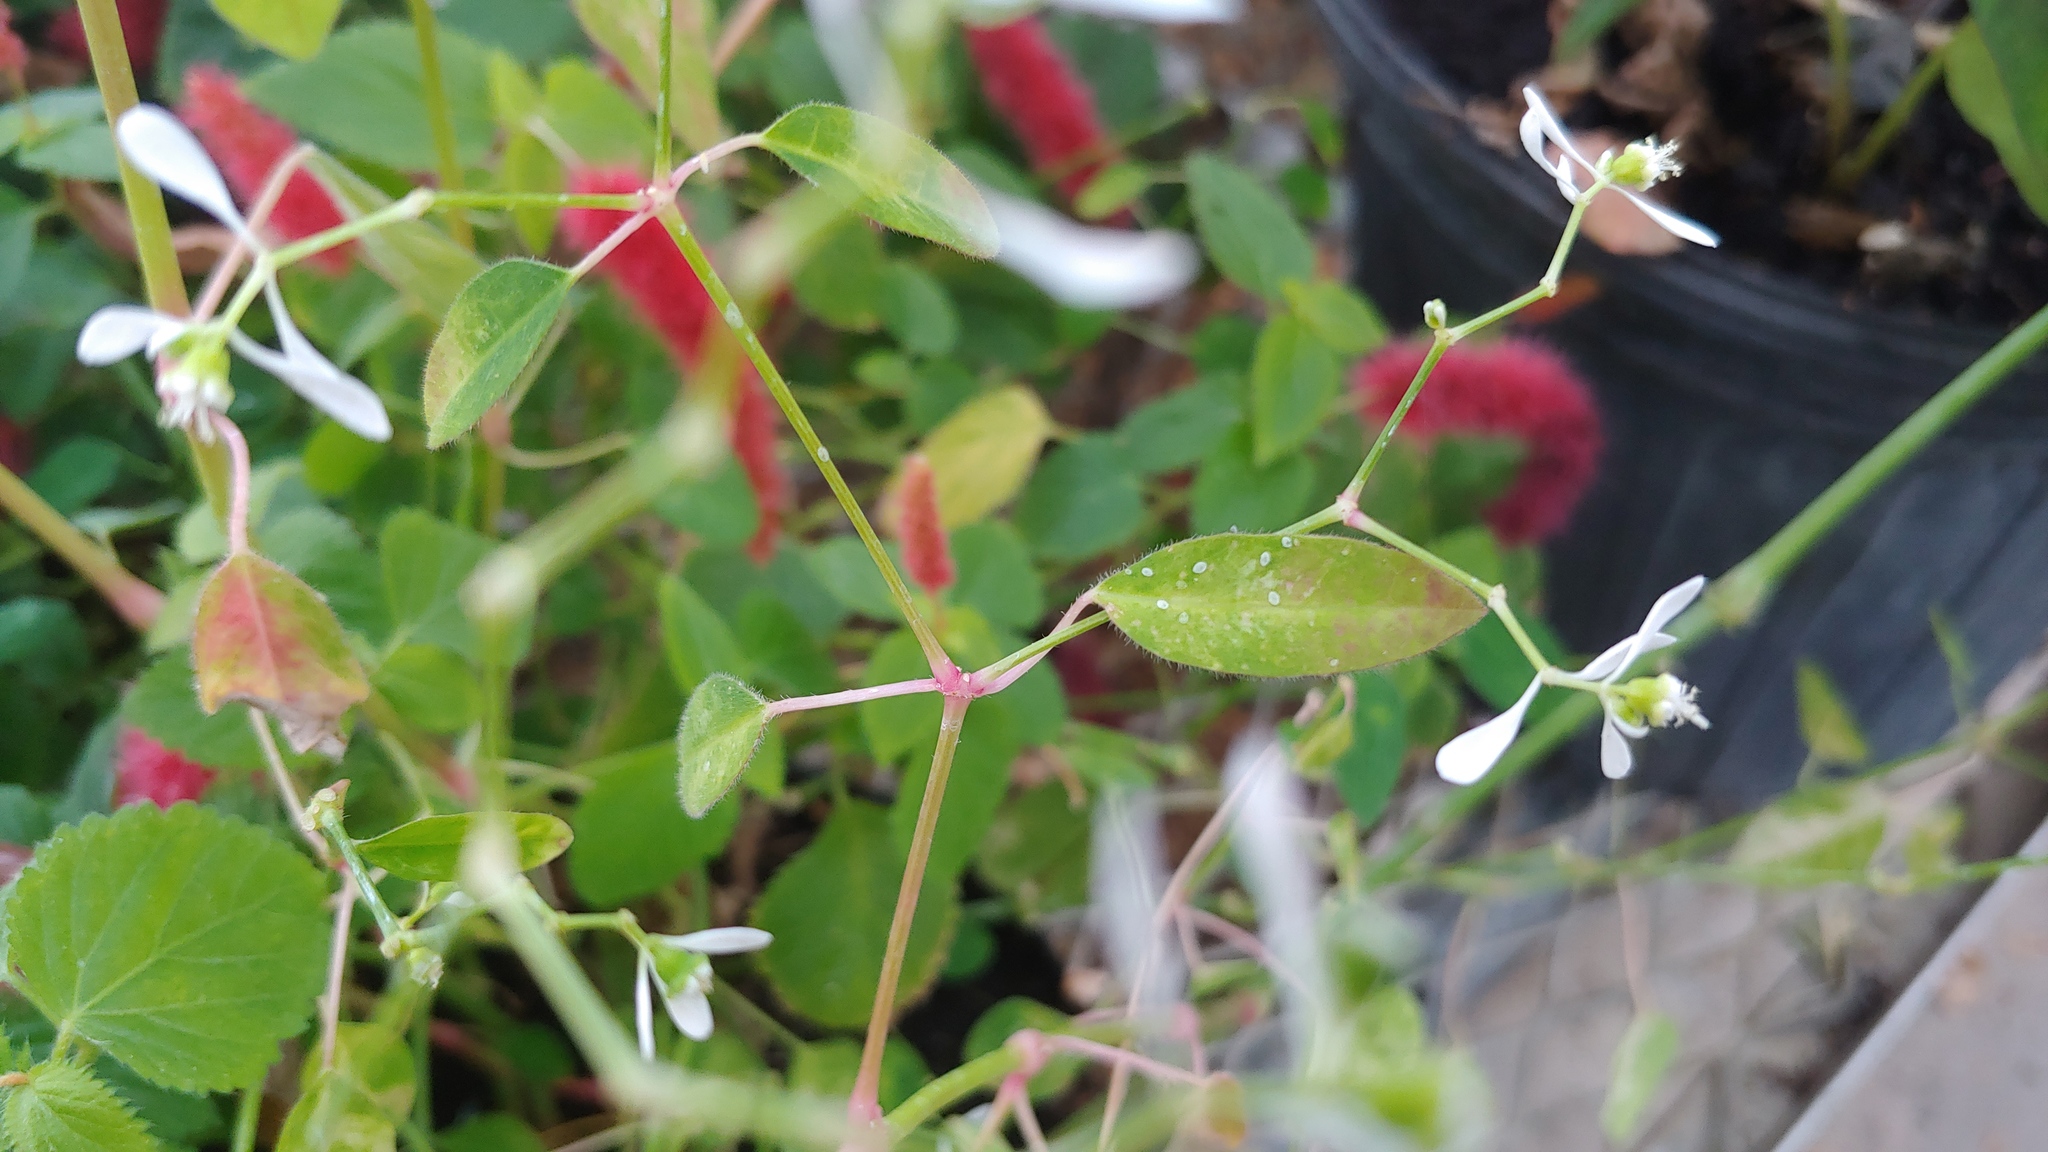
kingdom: Plantae
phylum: Tracheophyta
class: Magnoliopsida
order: Malpighiales
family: Euphorbiaceae
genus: Euphorbia
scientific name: Euphorbia graminea
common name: Grassleaf spurge
